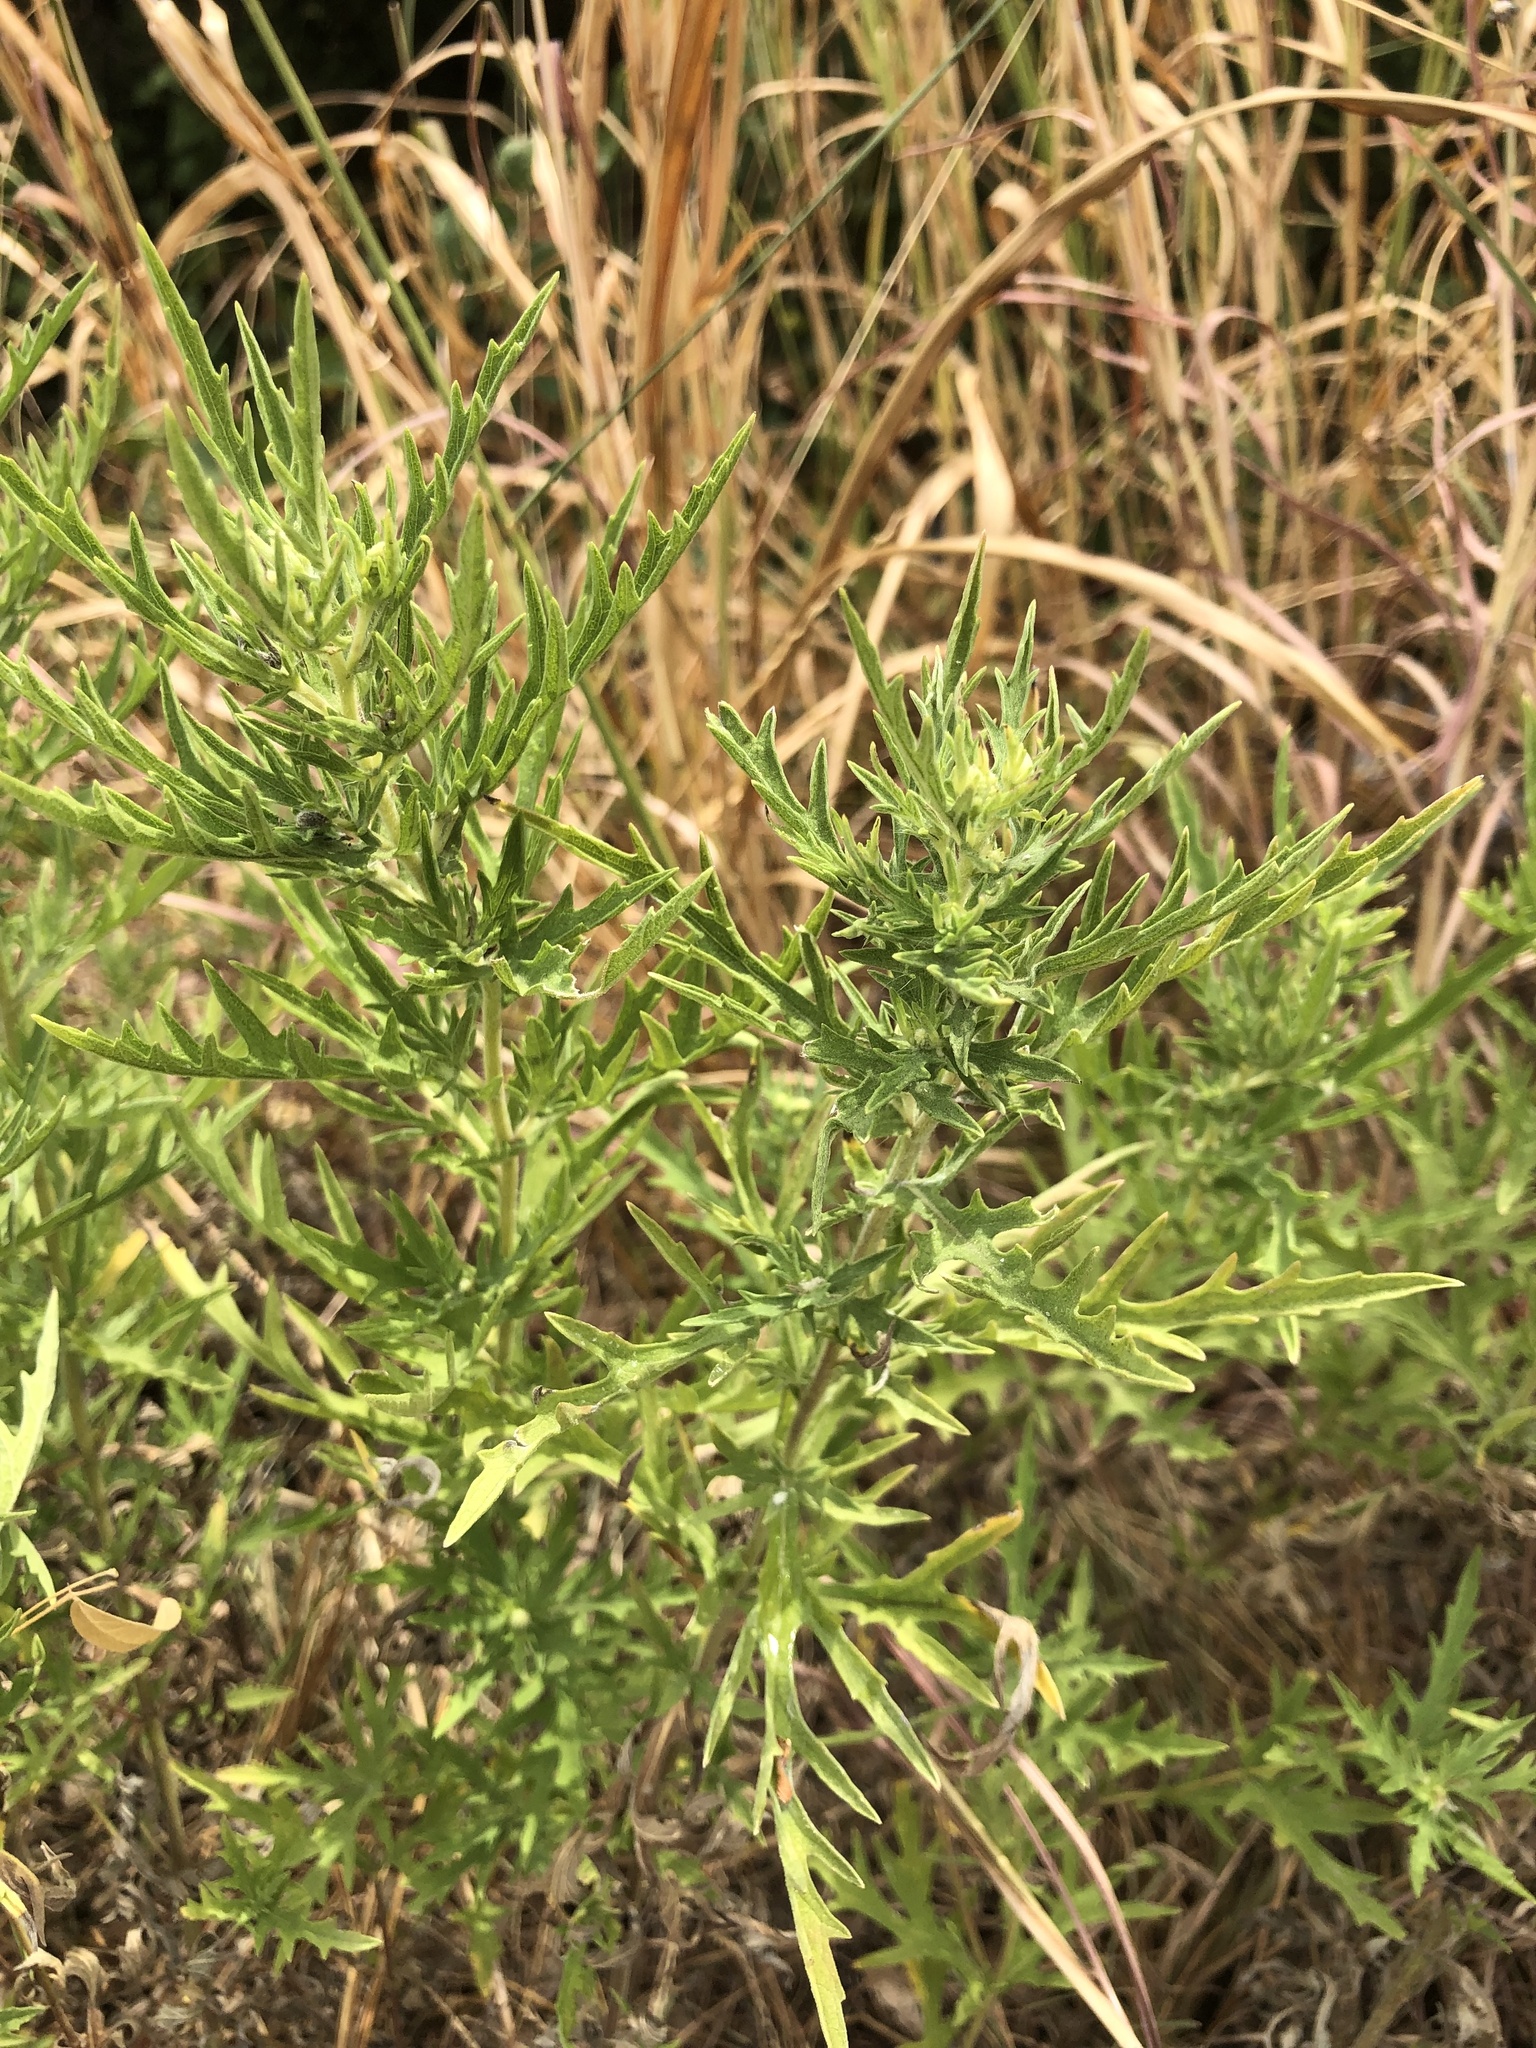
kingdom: Plantae
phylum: Tracheophyta
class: Magnoliopsida
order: Asterales
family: Asteraceae
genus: Ambrosia
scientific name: Ambrosia psilostachya
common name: Perennial ragweed
